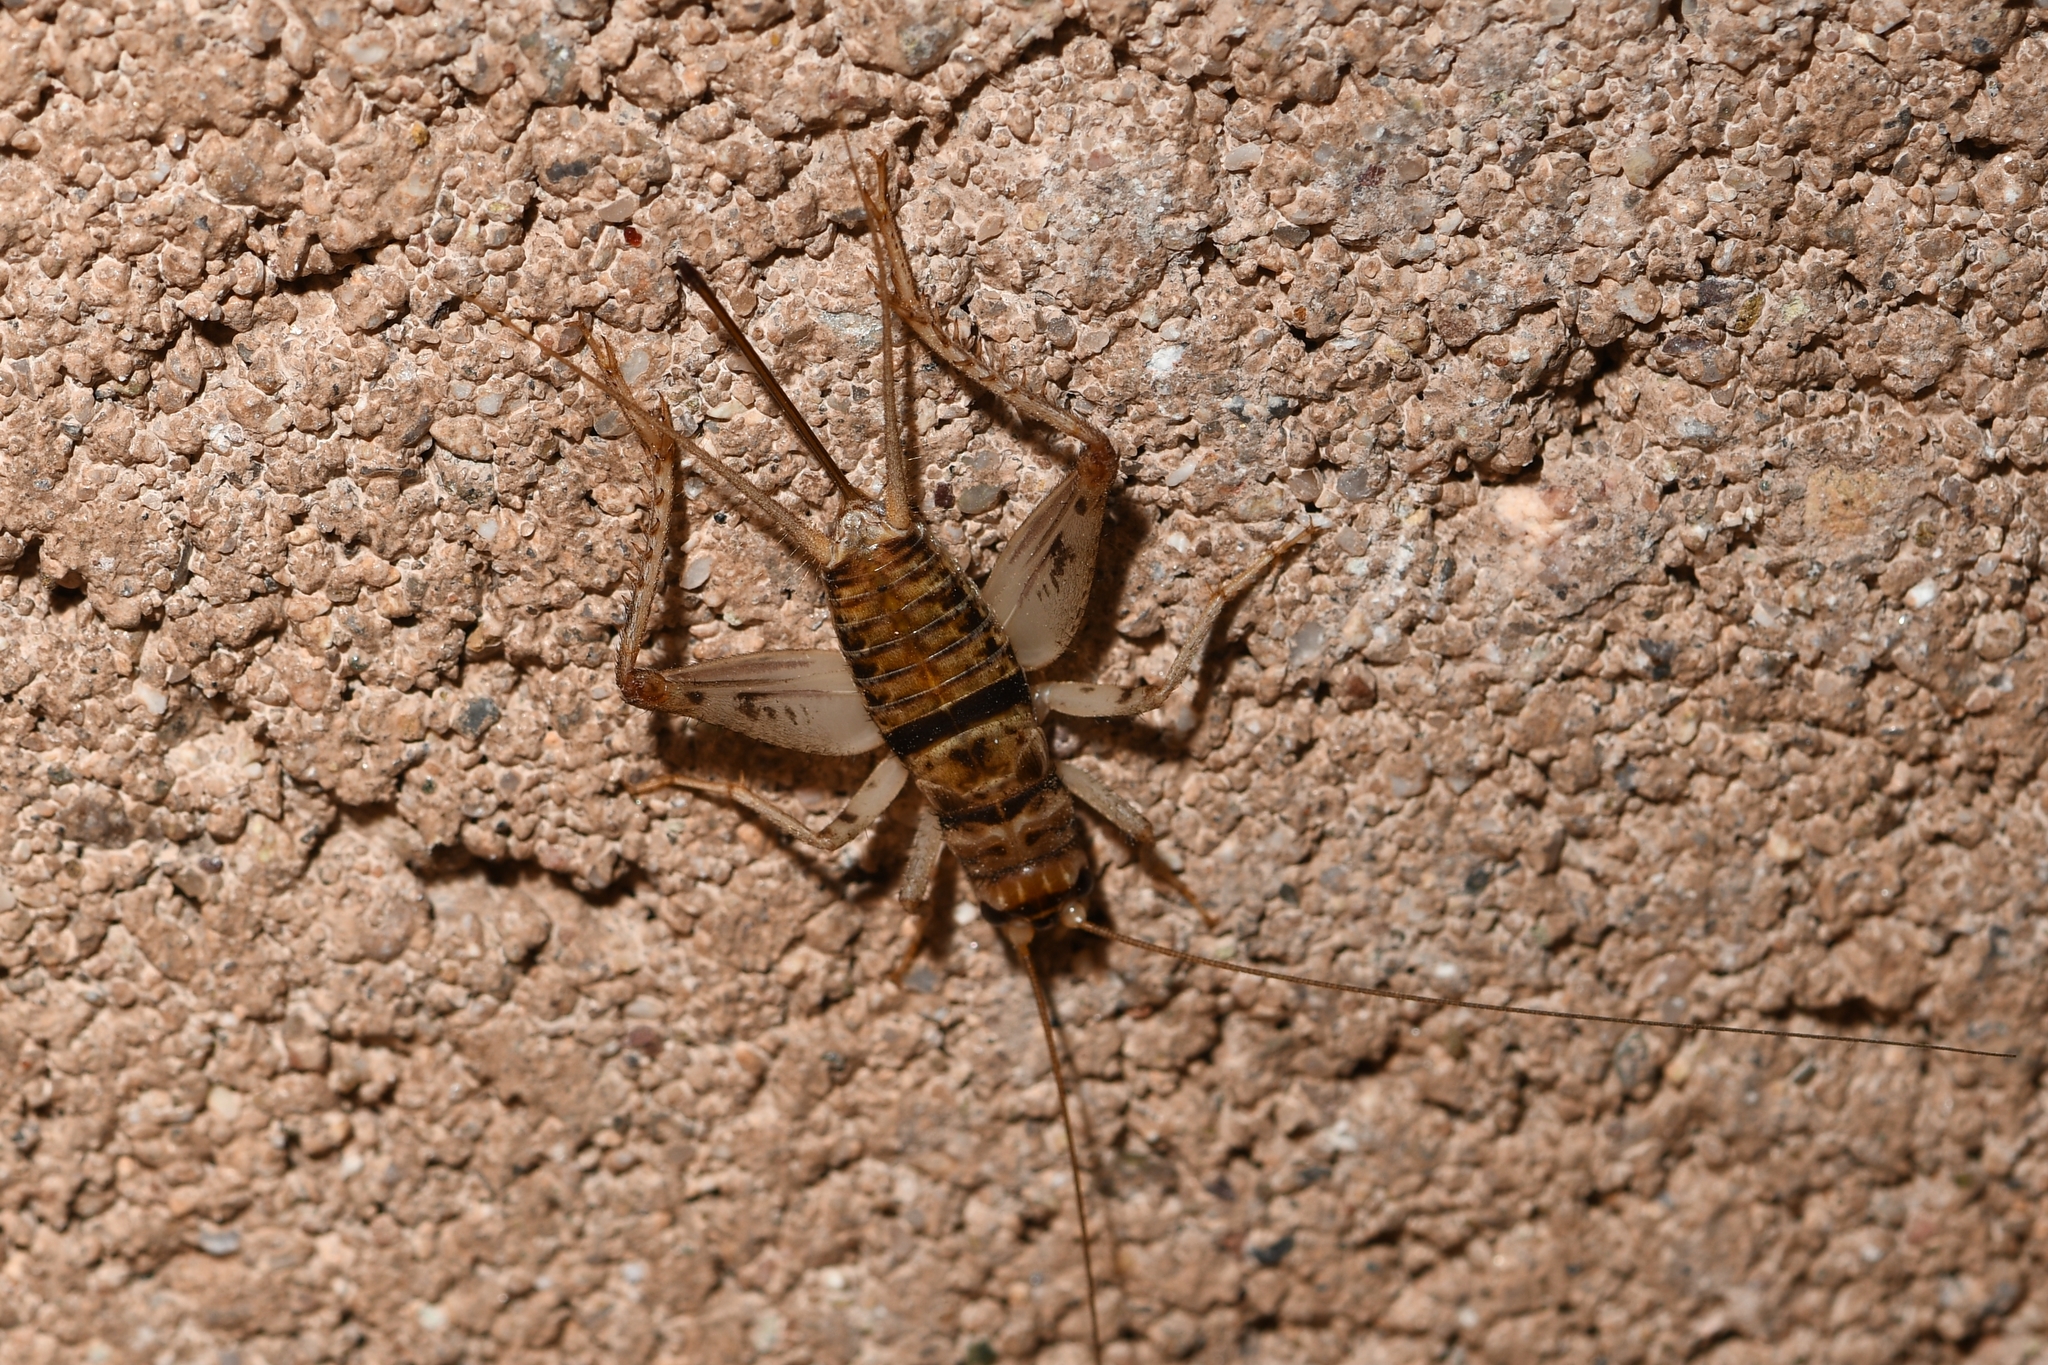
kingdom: Animalia
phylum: Arthropoda
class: Insecta
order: Orthoptera
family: Gryllidae
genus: Gryllodes
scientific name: Gryllodes sigillatus
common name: Tropical house cricket
